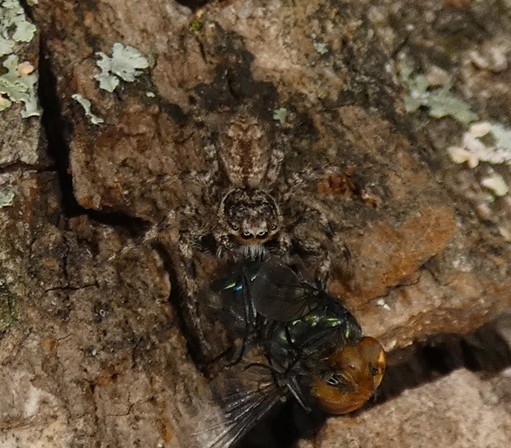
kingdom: Animalia
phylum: Arthropoda
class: Arachnida
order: Araneae
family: Salticidae
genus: Platycryptus
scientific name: Platycryptus undatus
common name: Tan jumping spider
